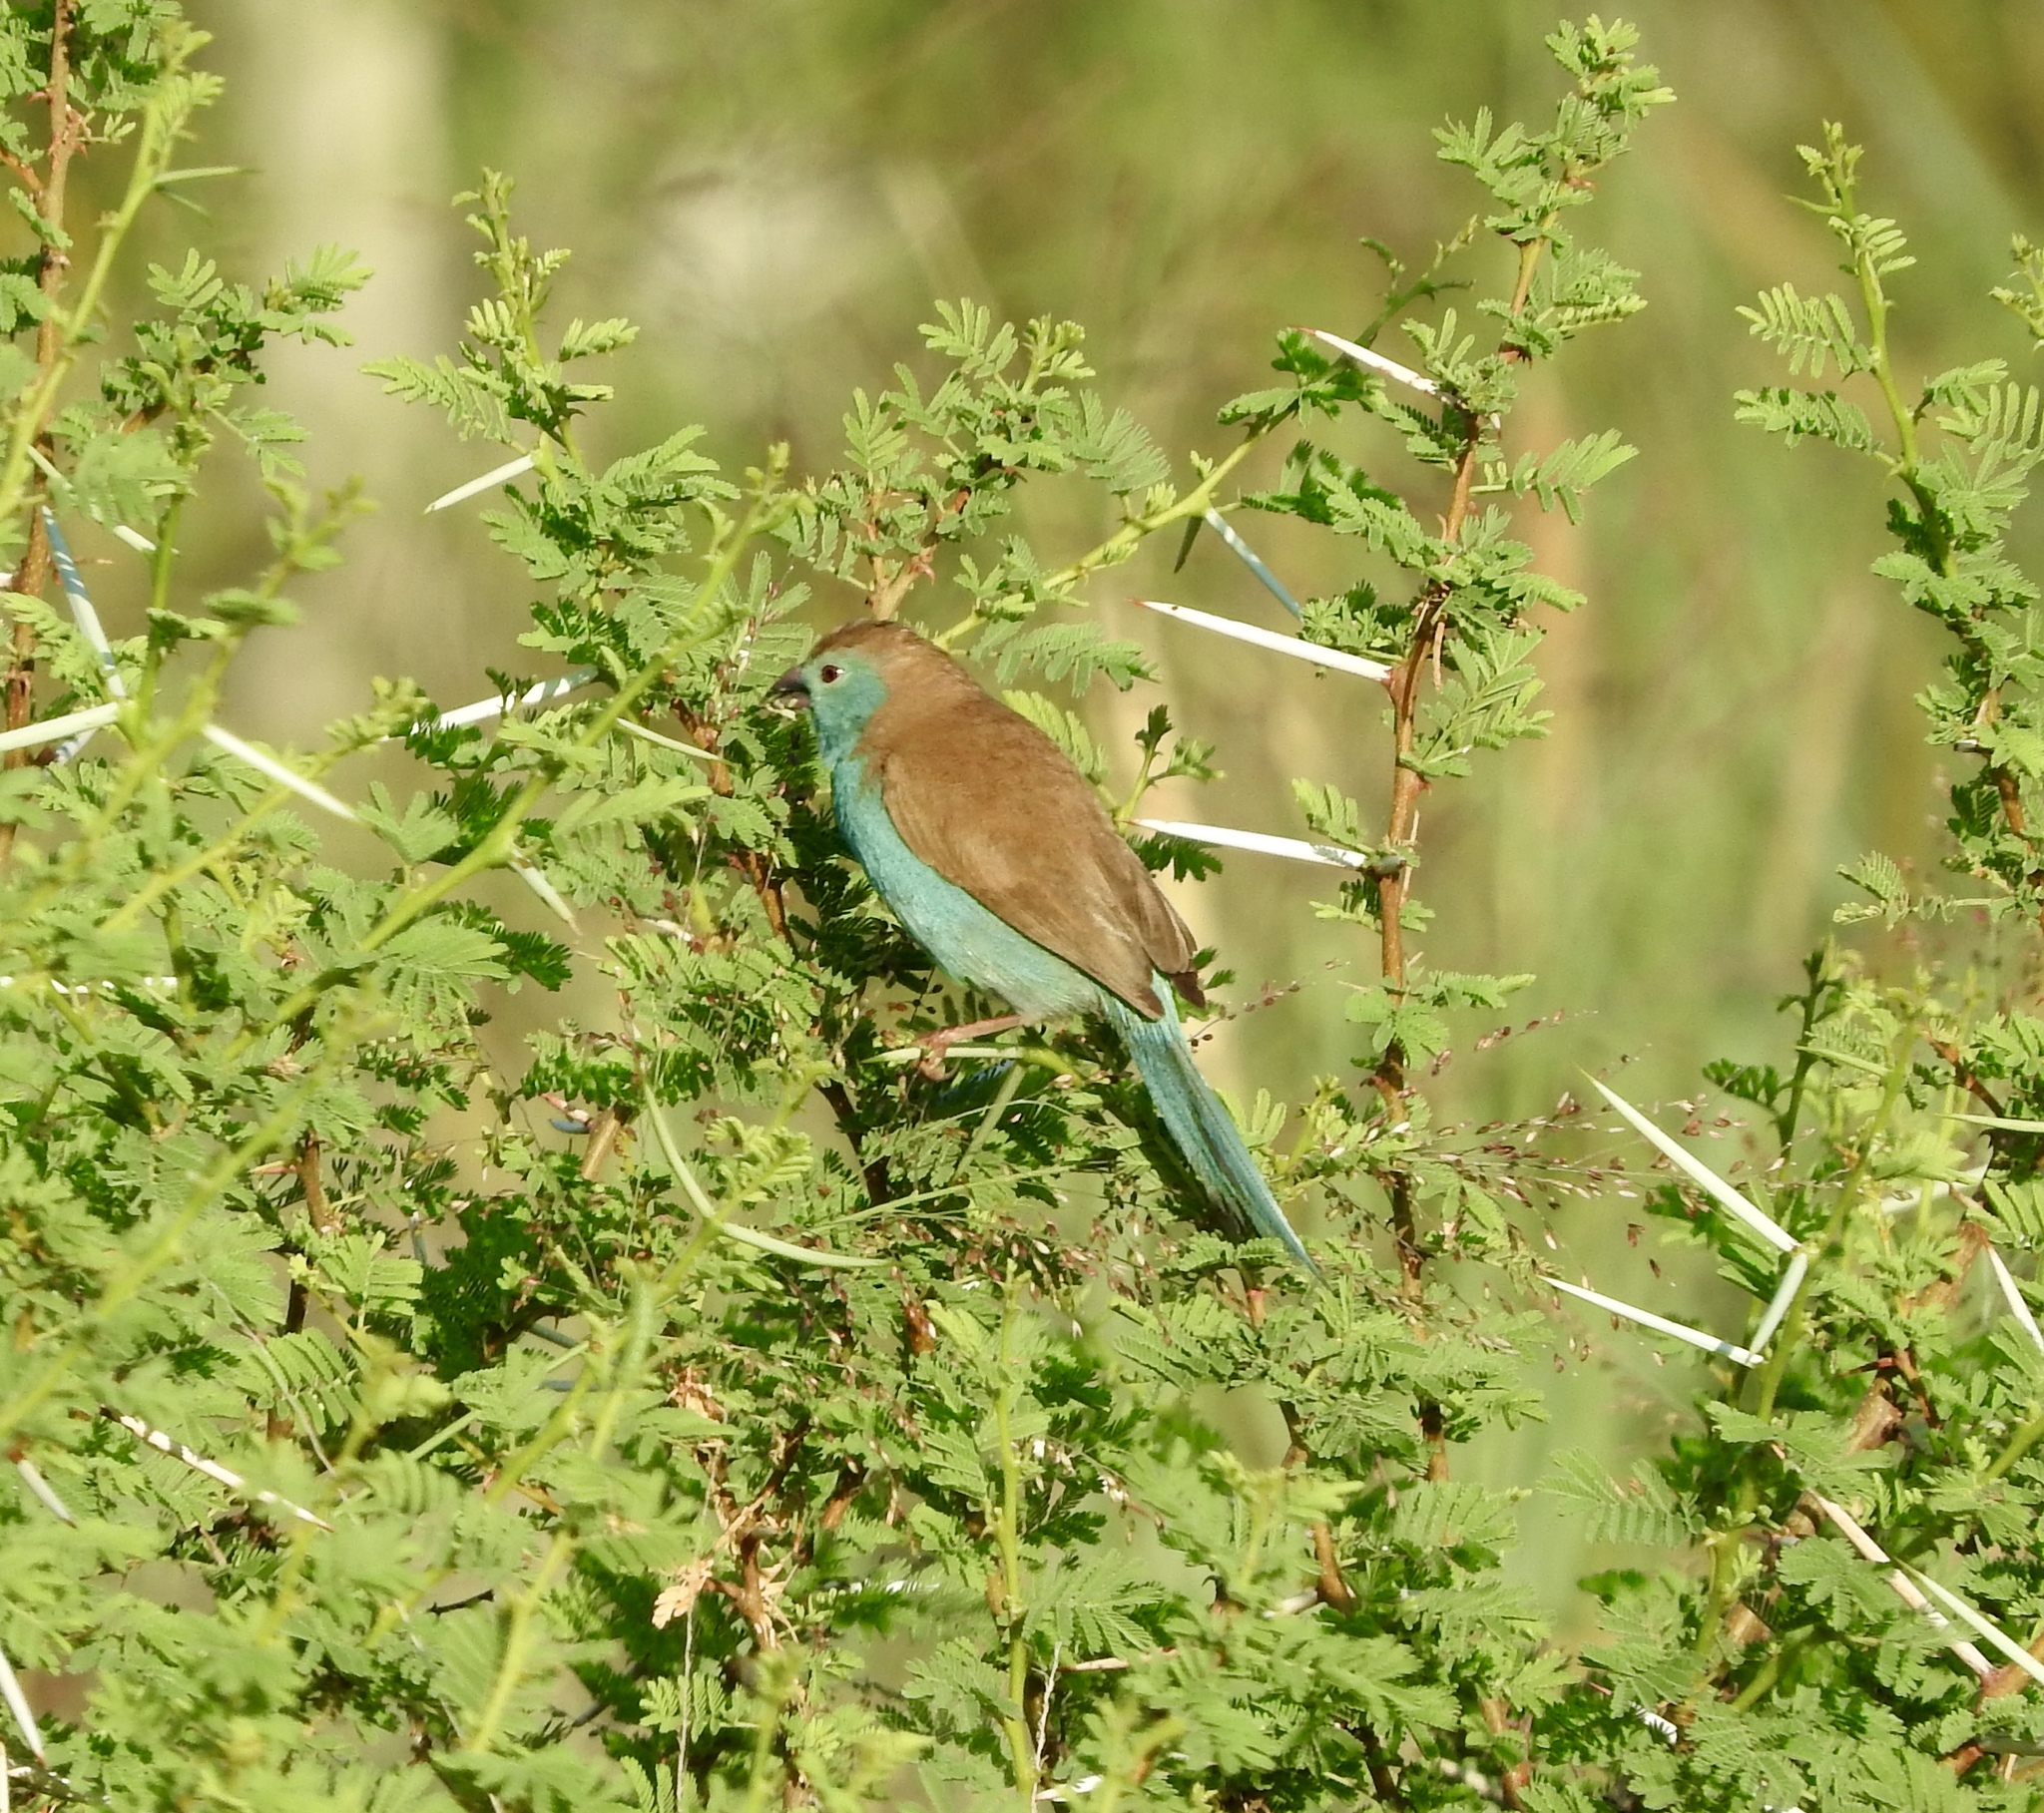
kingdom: Animalia
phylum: Chordata
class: Aves
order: Passeriformes
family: Estrildidae
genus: Uraeginthus
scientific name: Uraeginthus angolensis
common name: Blue waxbill
